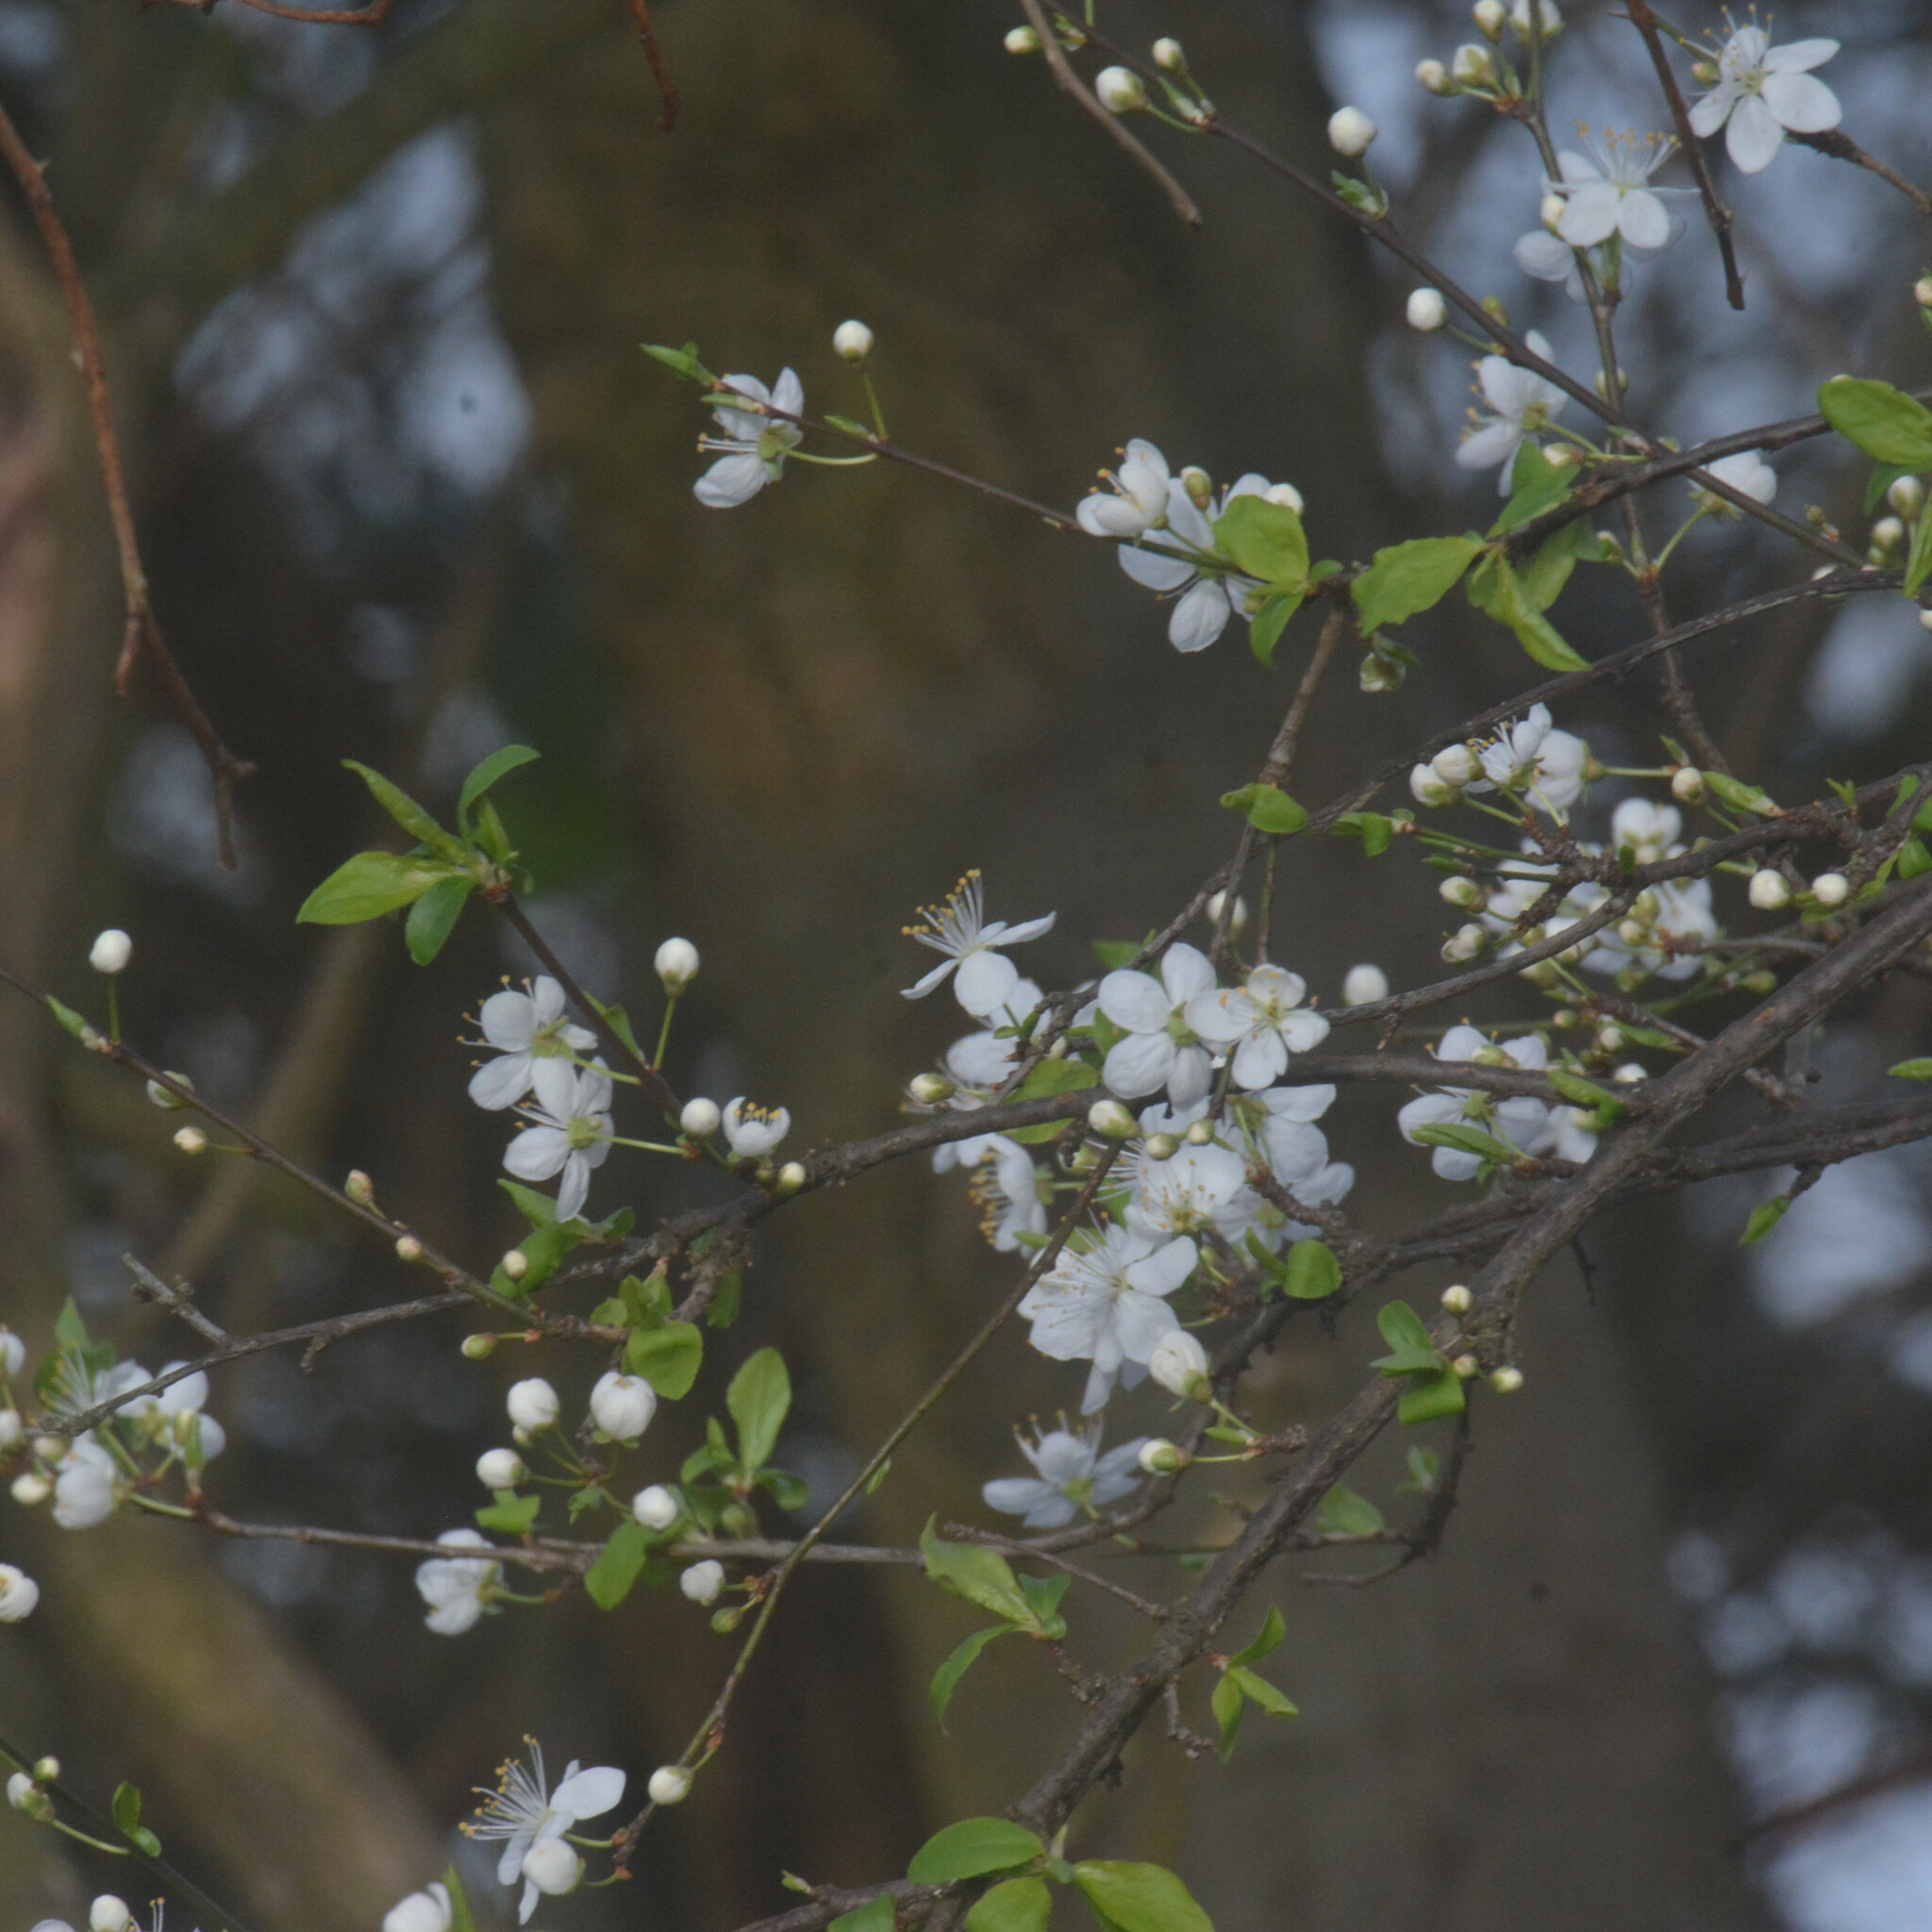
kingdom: Plantae
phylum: Tracheophyta
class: Magnoliopsida
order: Rosales
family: Rosaceae
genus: Prunus
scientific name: Prunus cerasifera
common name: Cherry plum
